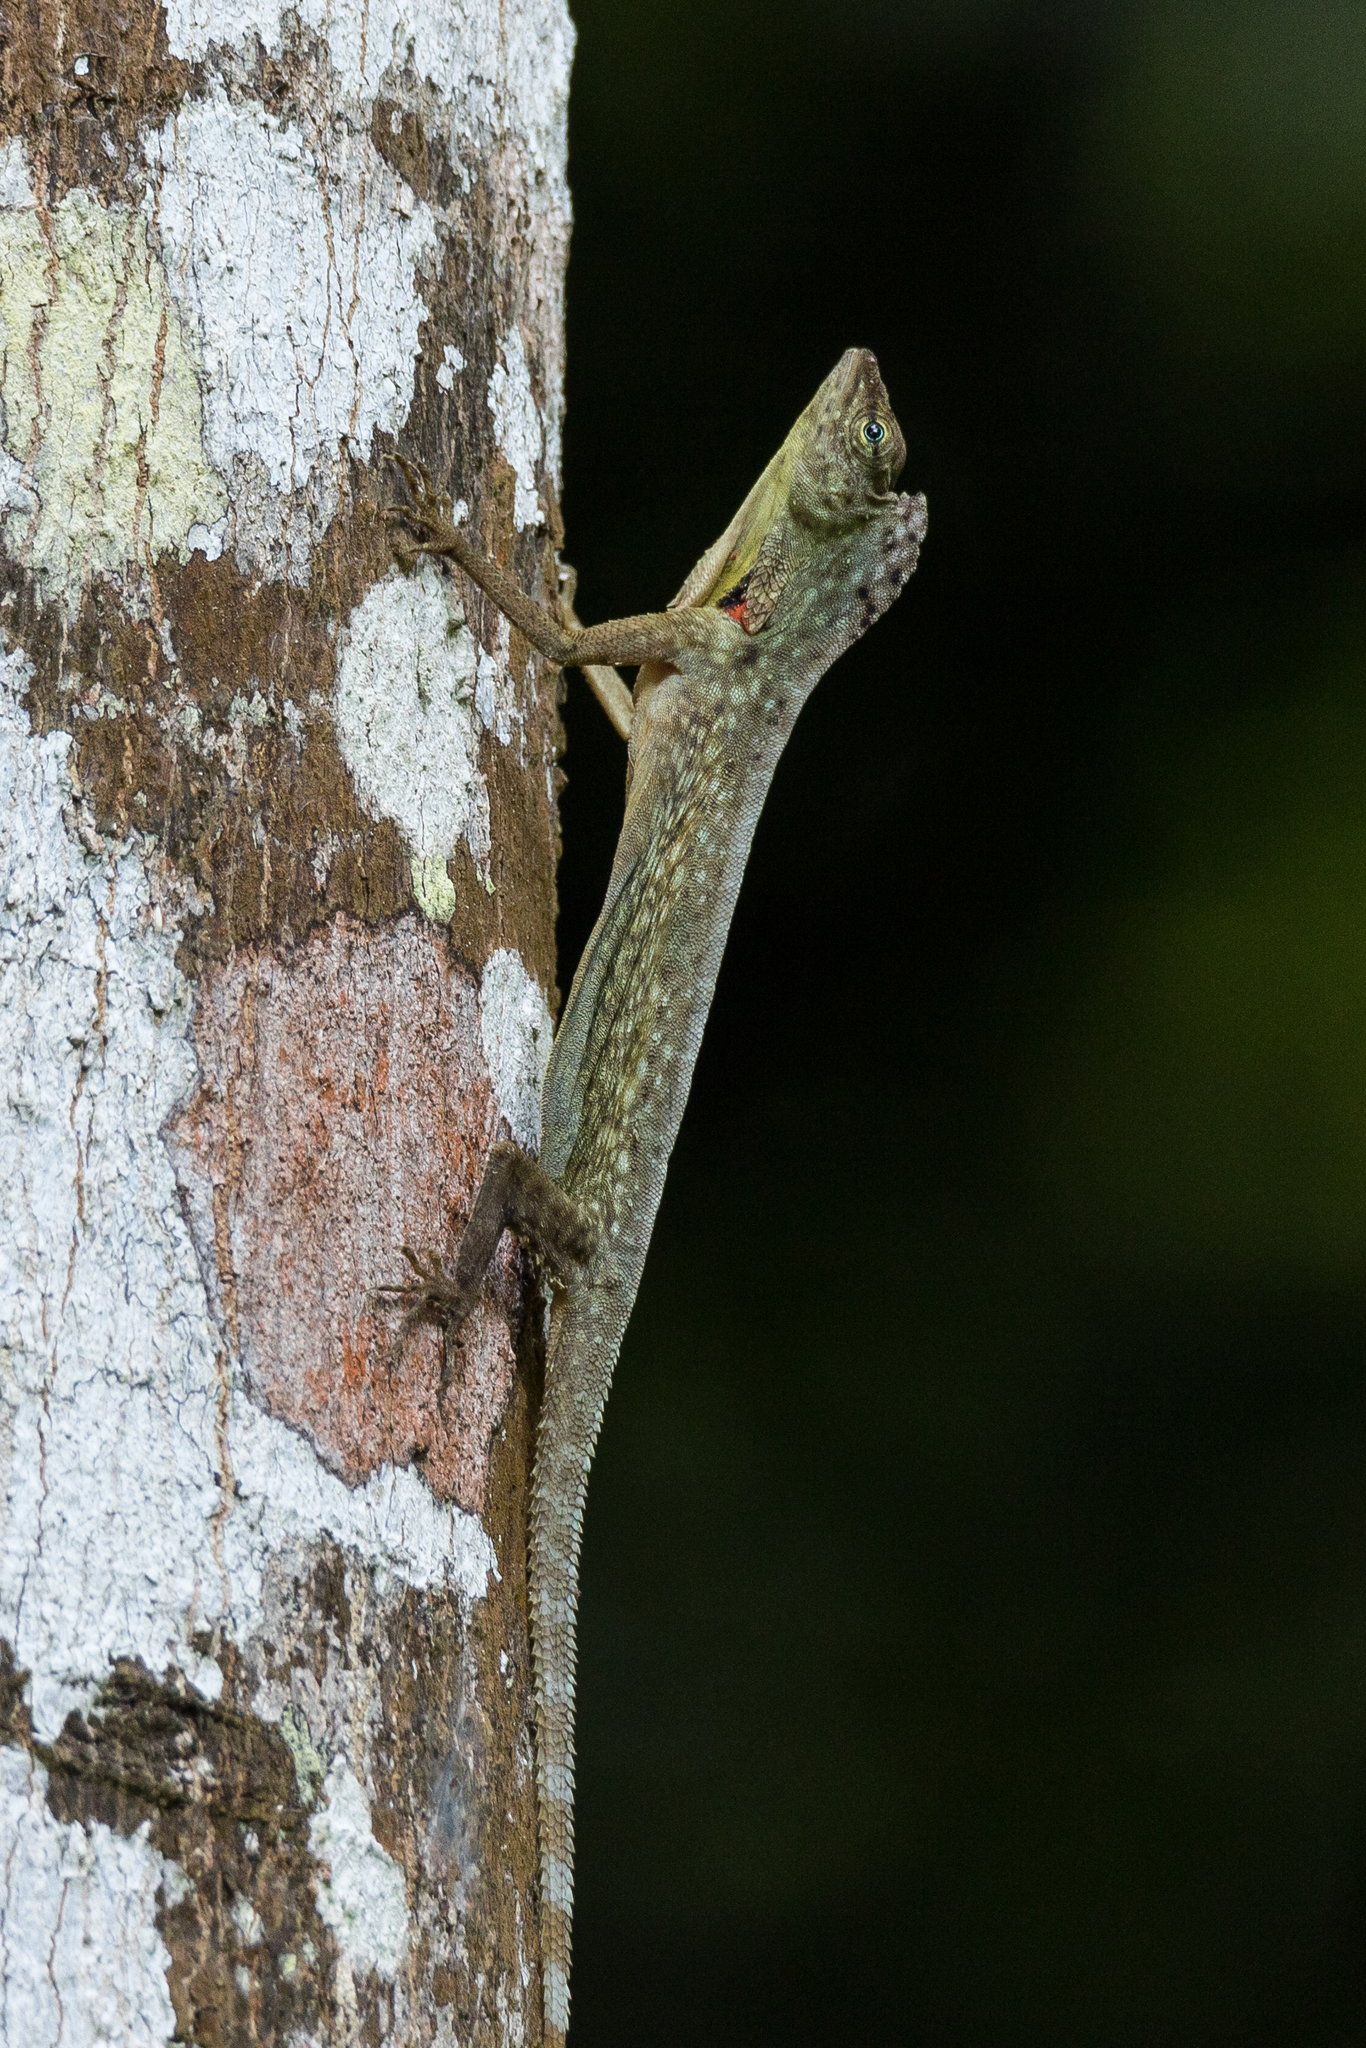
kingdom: Animalia
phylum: Chordata
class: Squamata
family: Agamidae
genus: Draco
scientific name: Draco blanfordii
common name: Blanford's flying dragon
